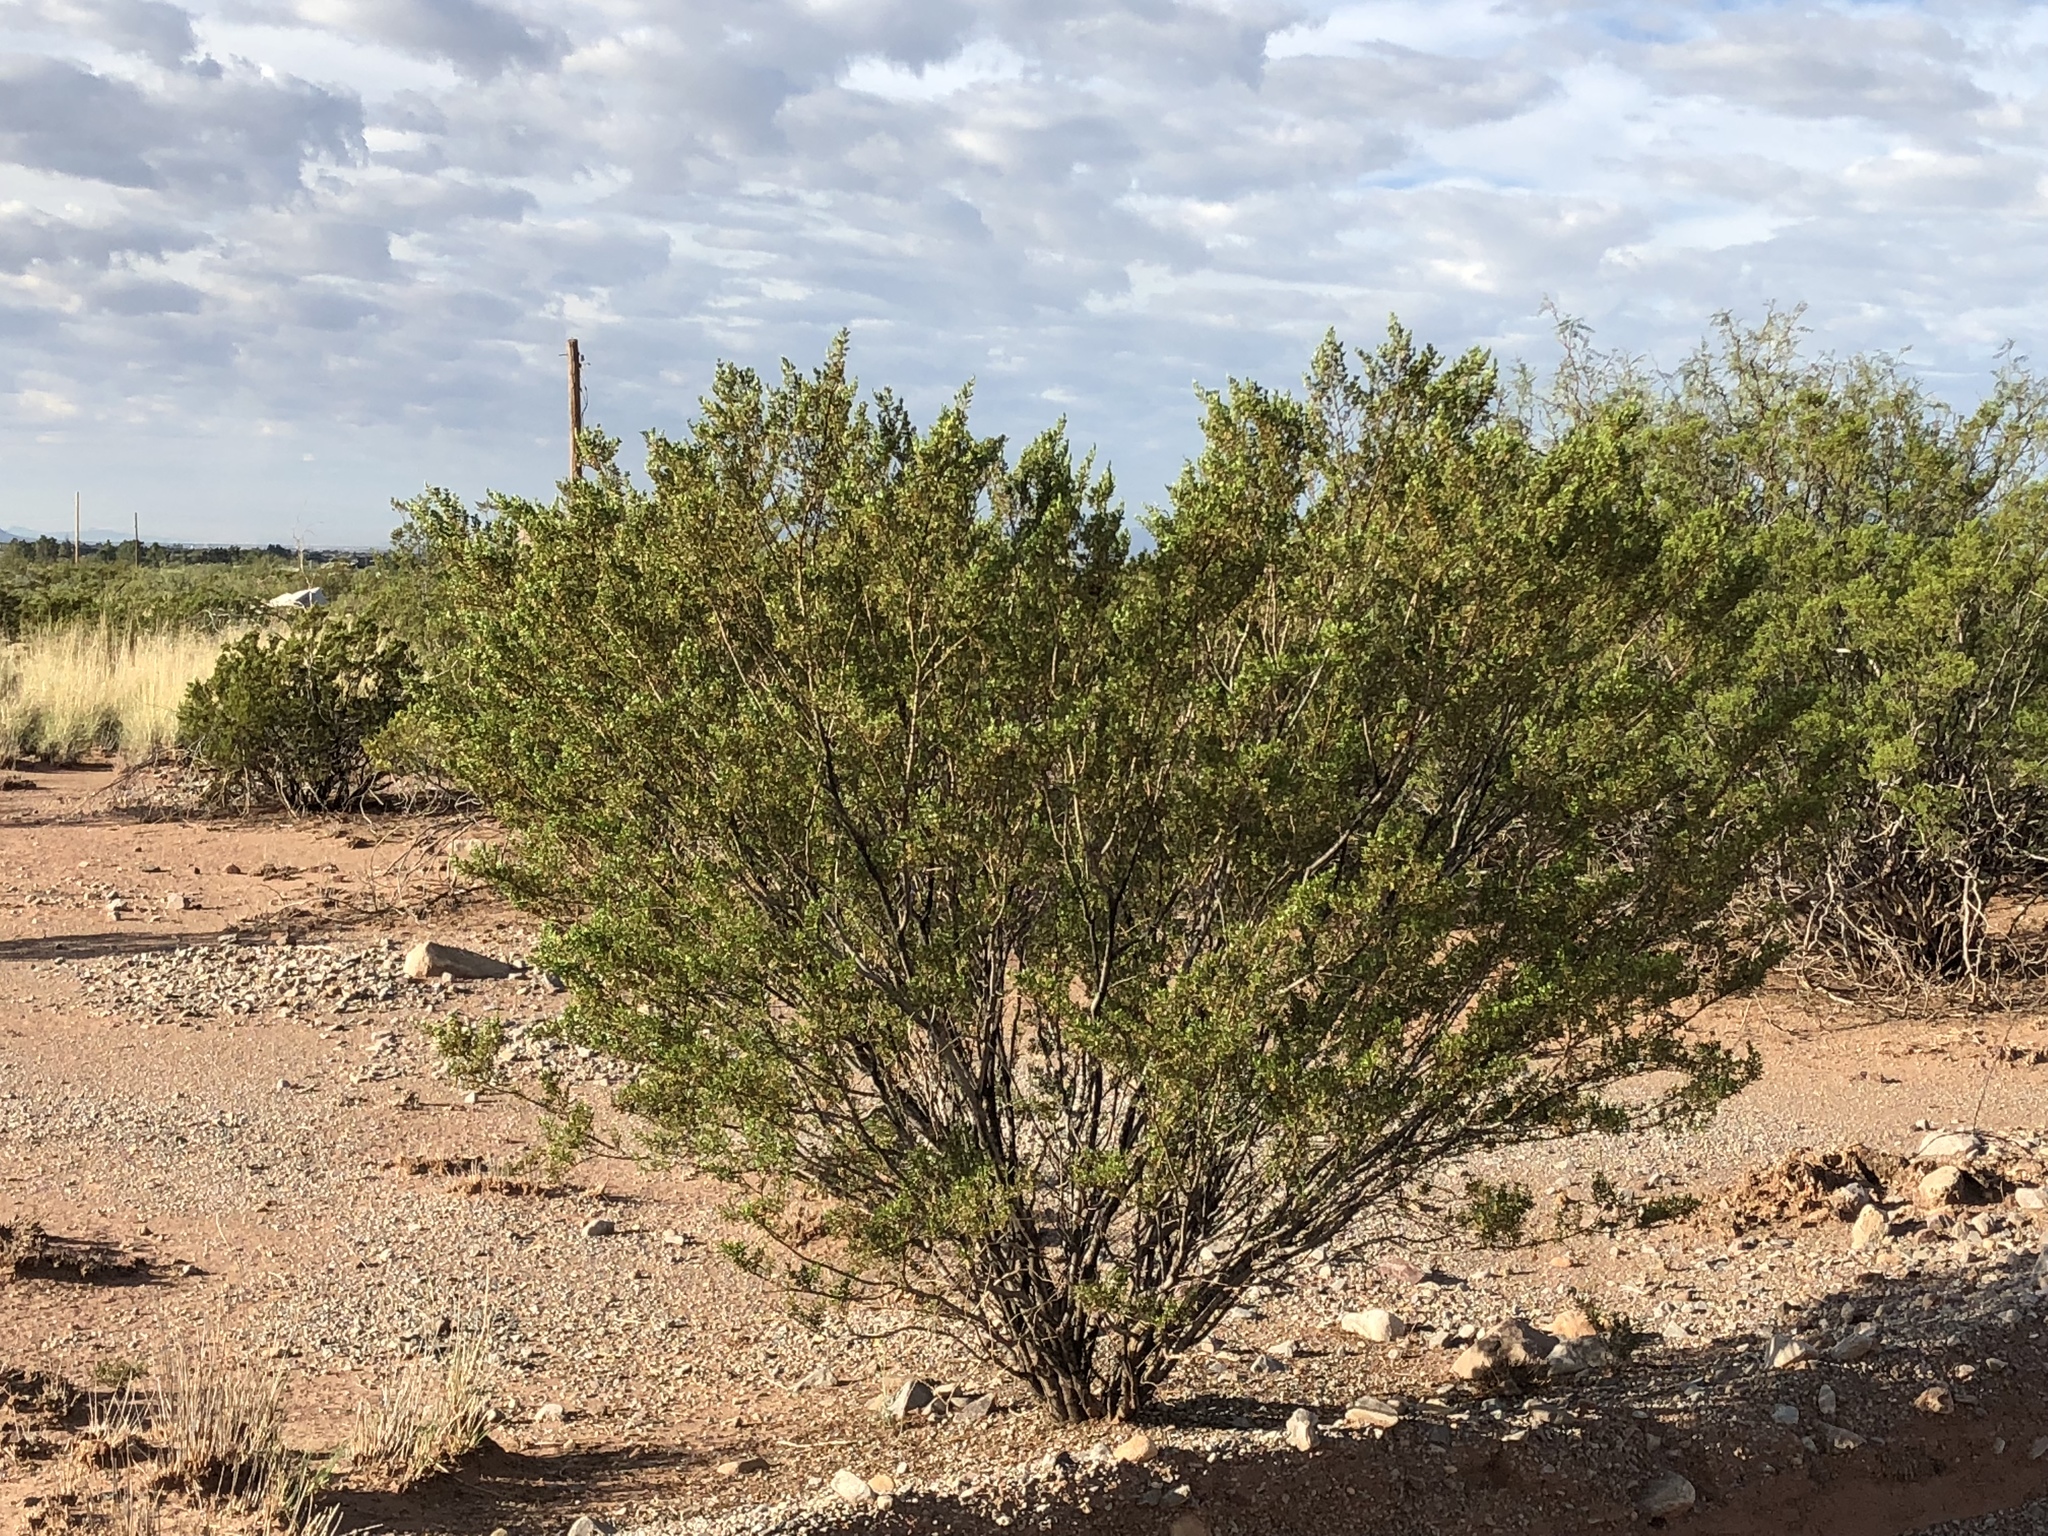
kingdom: Plantae
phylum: Tracheophyta
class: Magnoliopsida
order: Zygophyllales
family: Zygophyllaceae
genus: Larrea
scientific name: Larrea tridentata
